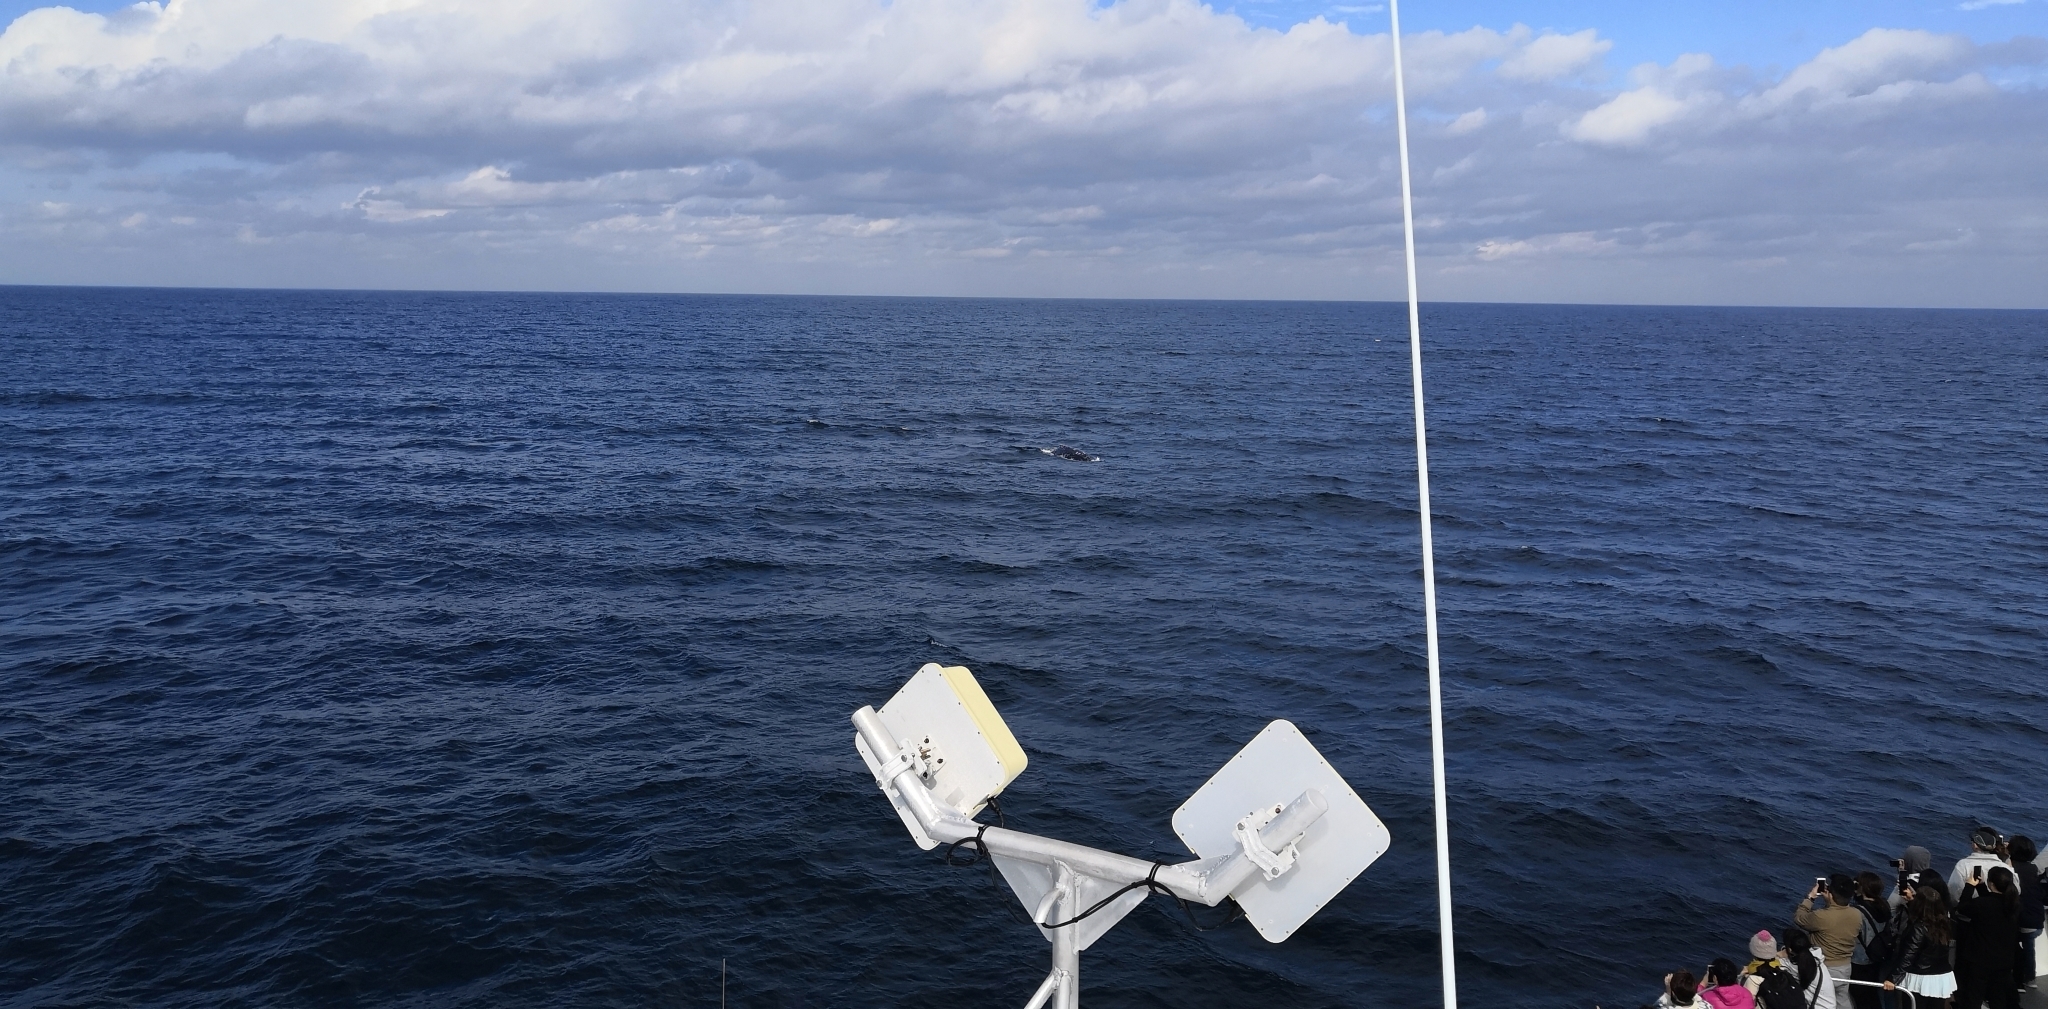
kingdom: Animalia
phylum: Chordata
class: Mammalia
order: Cetacea
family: Balaenopteridae
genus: Megaptera
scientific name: Megaptera novaeangliae
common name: Humpback whale
